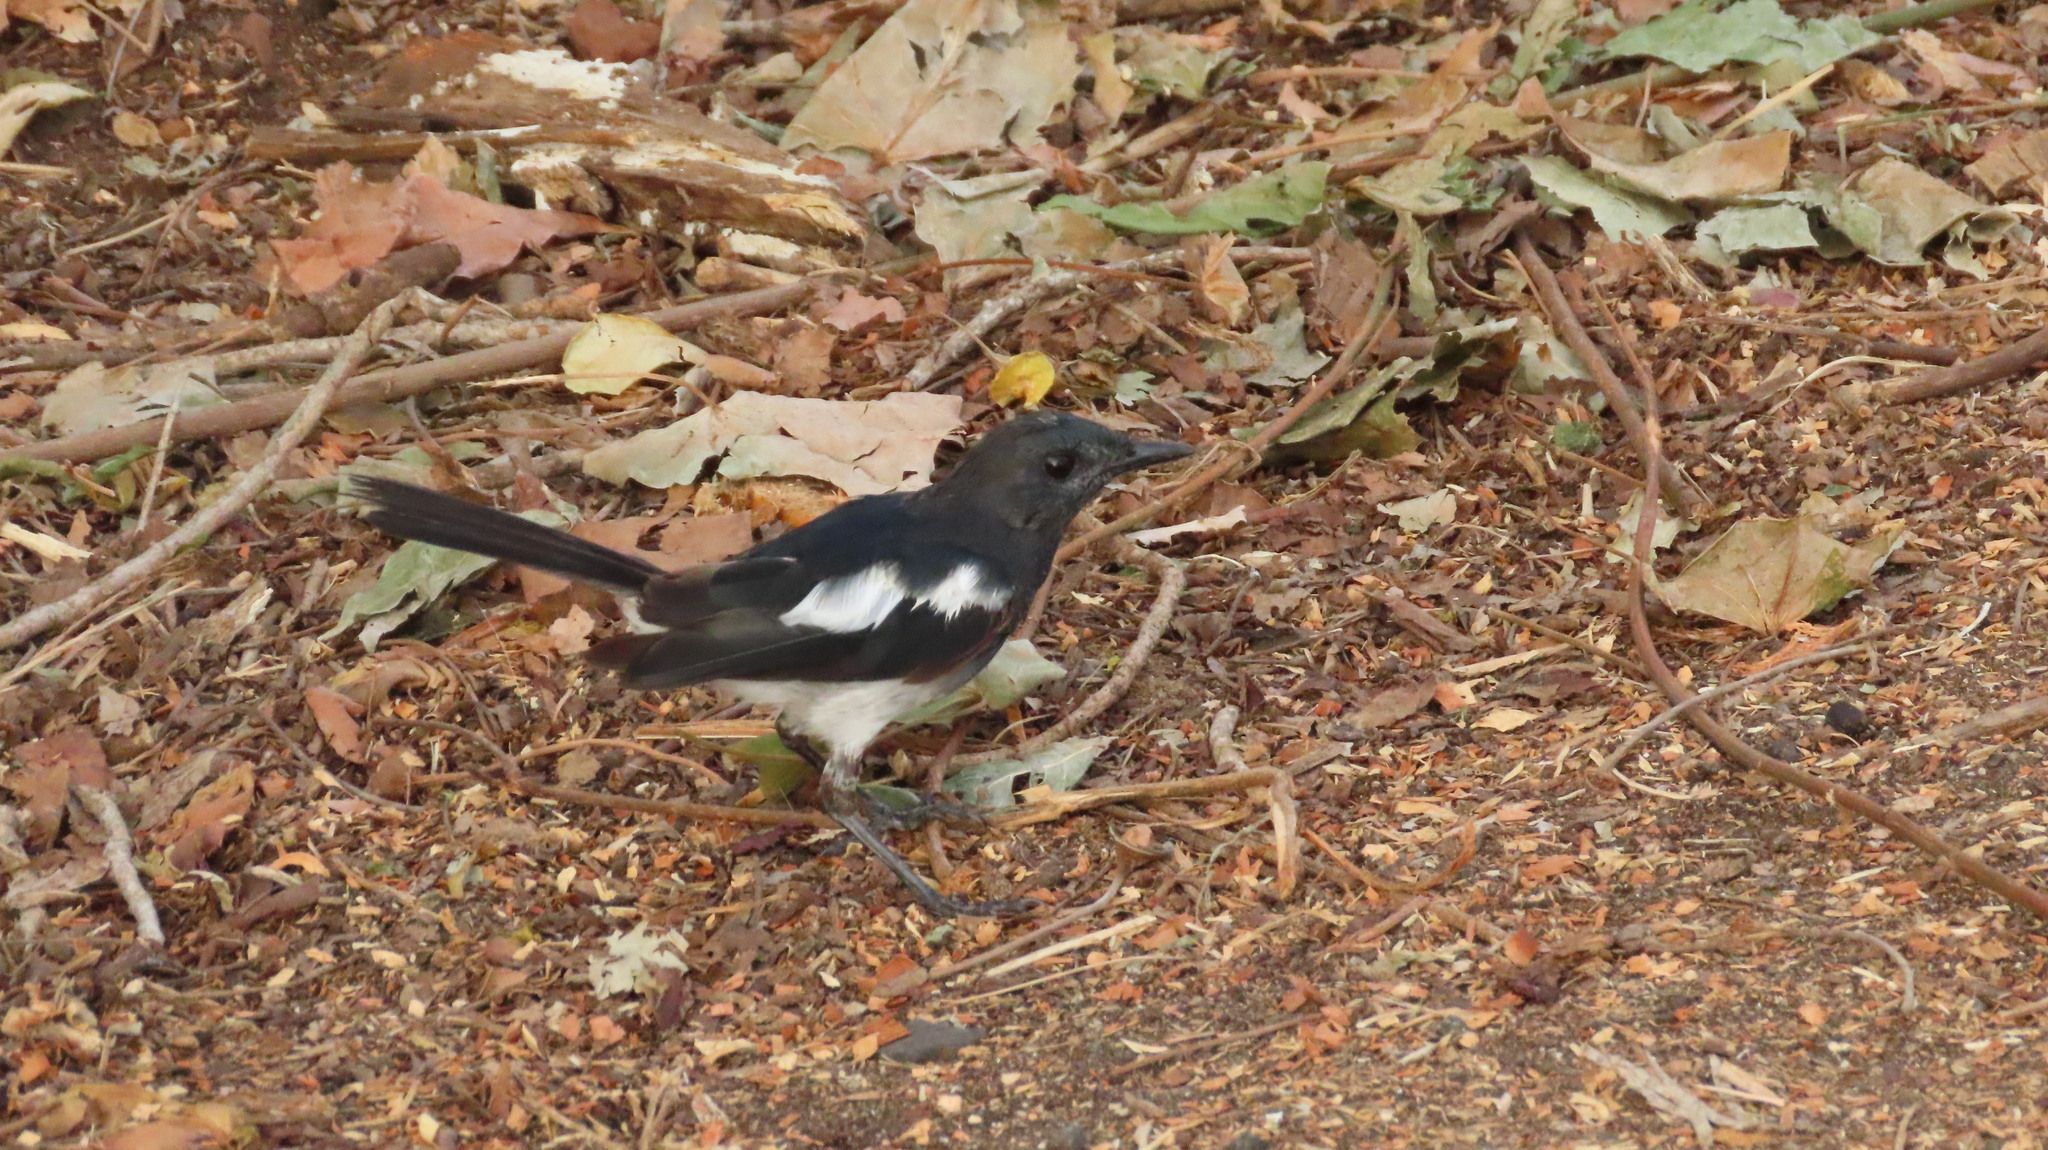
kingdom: Animalia
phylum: Chordata
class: Aves
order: Passeriformes
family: Muscicapidae
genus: Copsychus
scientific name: Copsychus saularis
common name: Oriental magpie-robin
